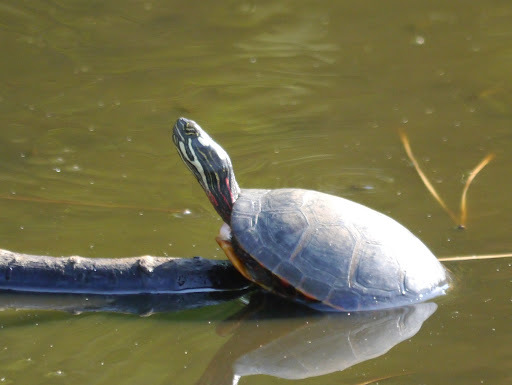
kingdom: Animalia
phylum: Chordata
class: Testudines
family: Emydidae
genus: Chrysemys
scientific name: Chrysemys picta
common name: Painted turtle
